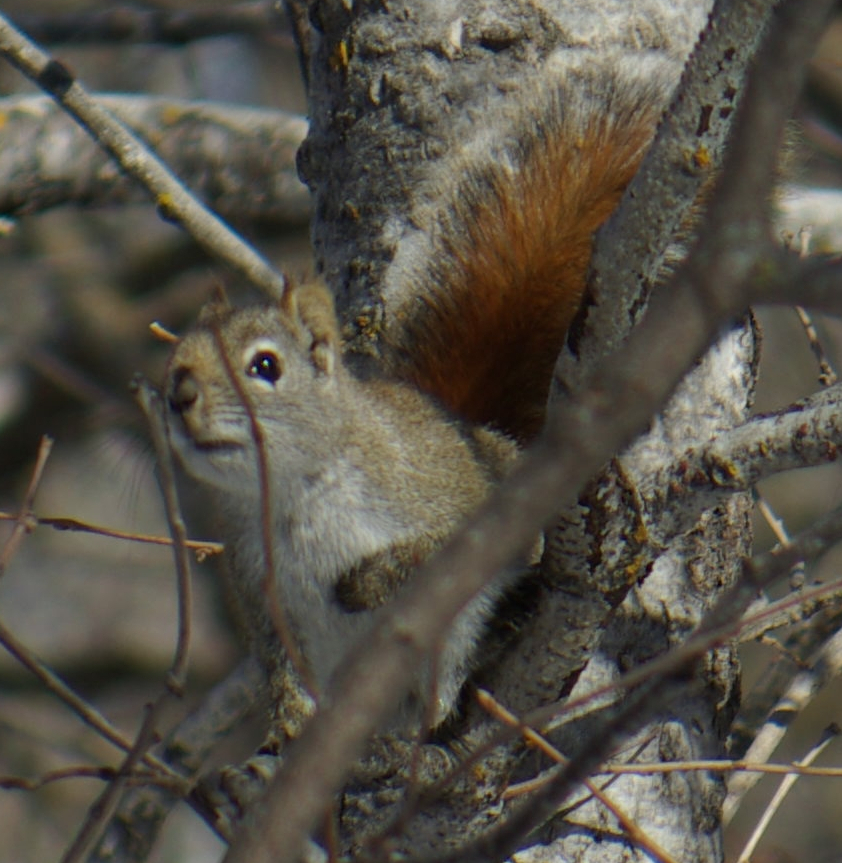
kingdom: Animalia
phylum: Chordata
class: Mammalia
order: Rodentia
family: Sciuridae
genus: Tamiasciurus
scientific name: Tamiasciurus hudsonicus
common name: Red squirrel
